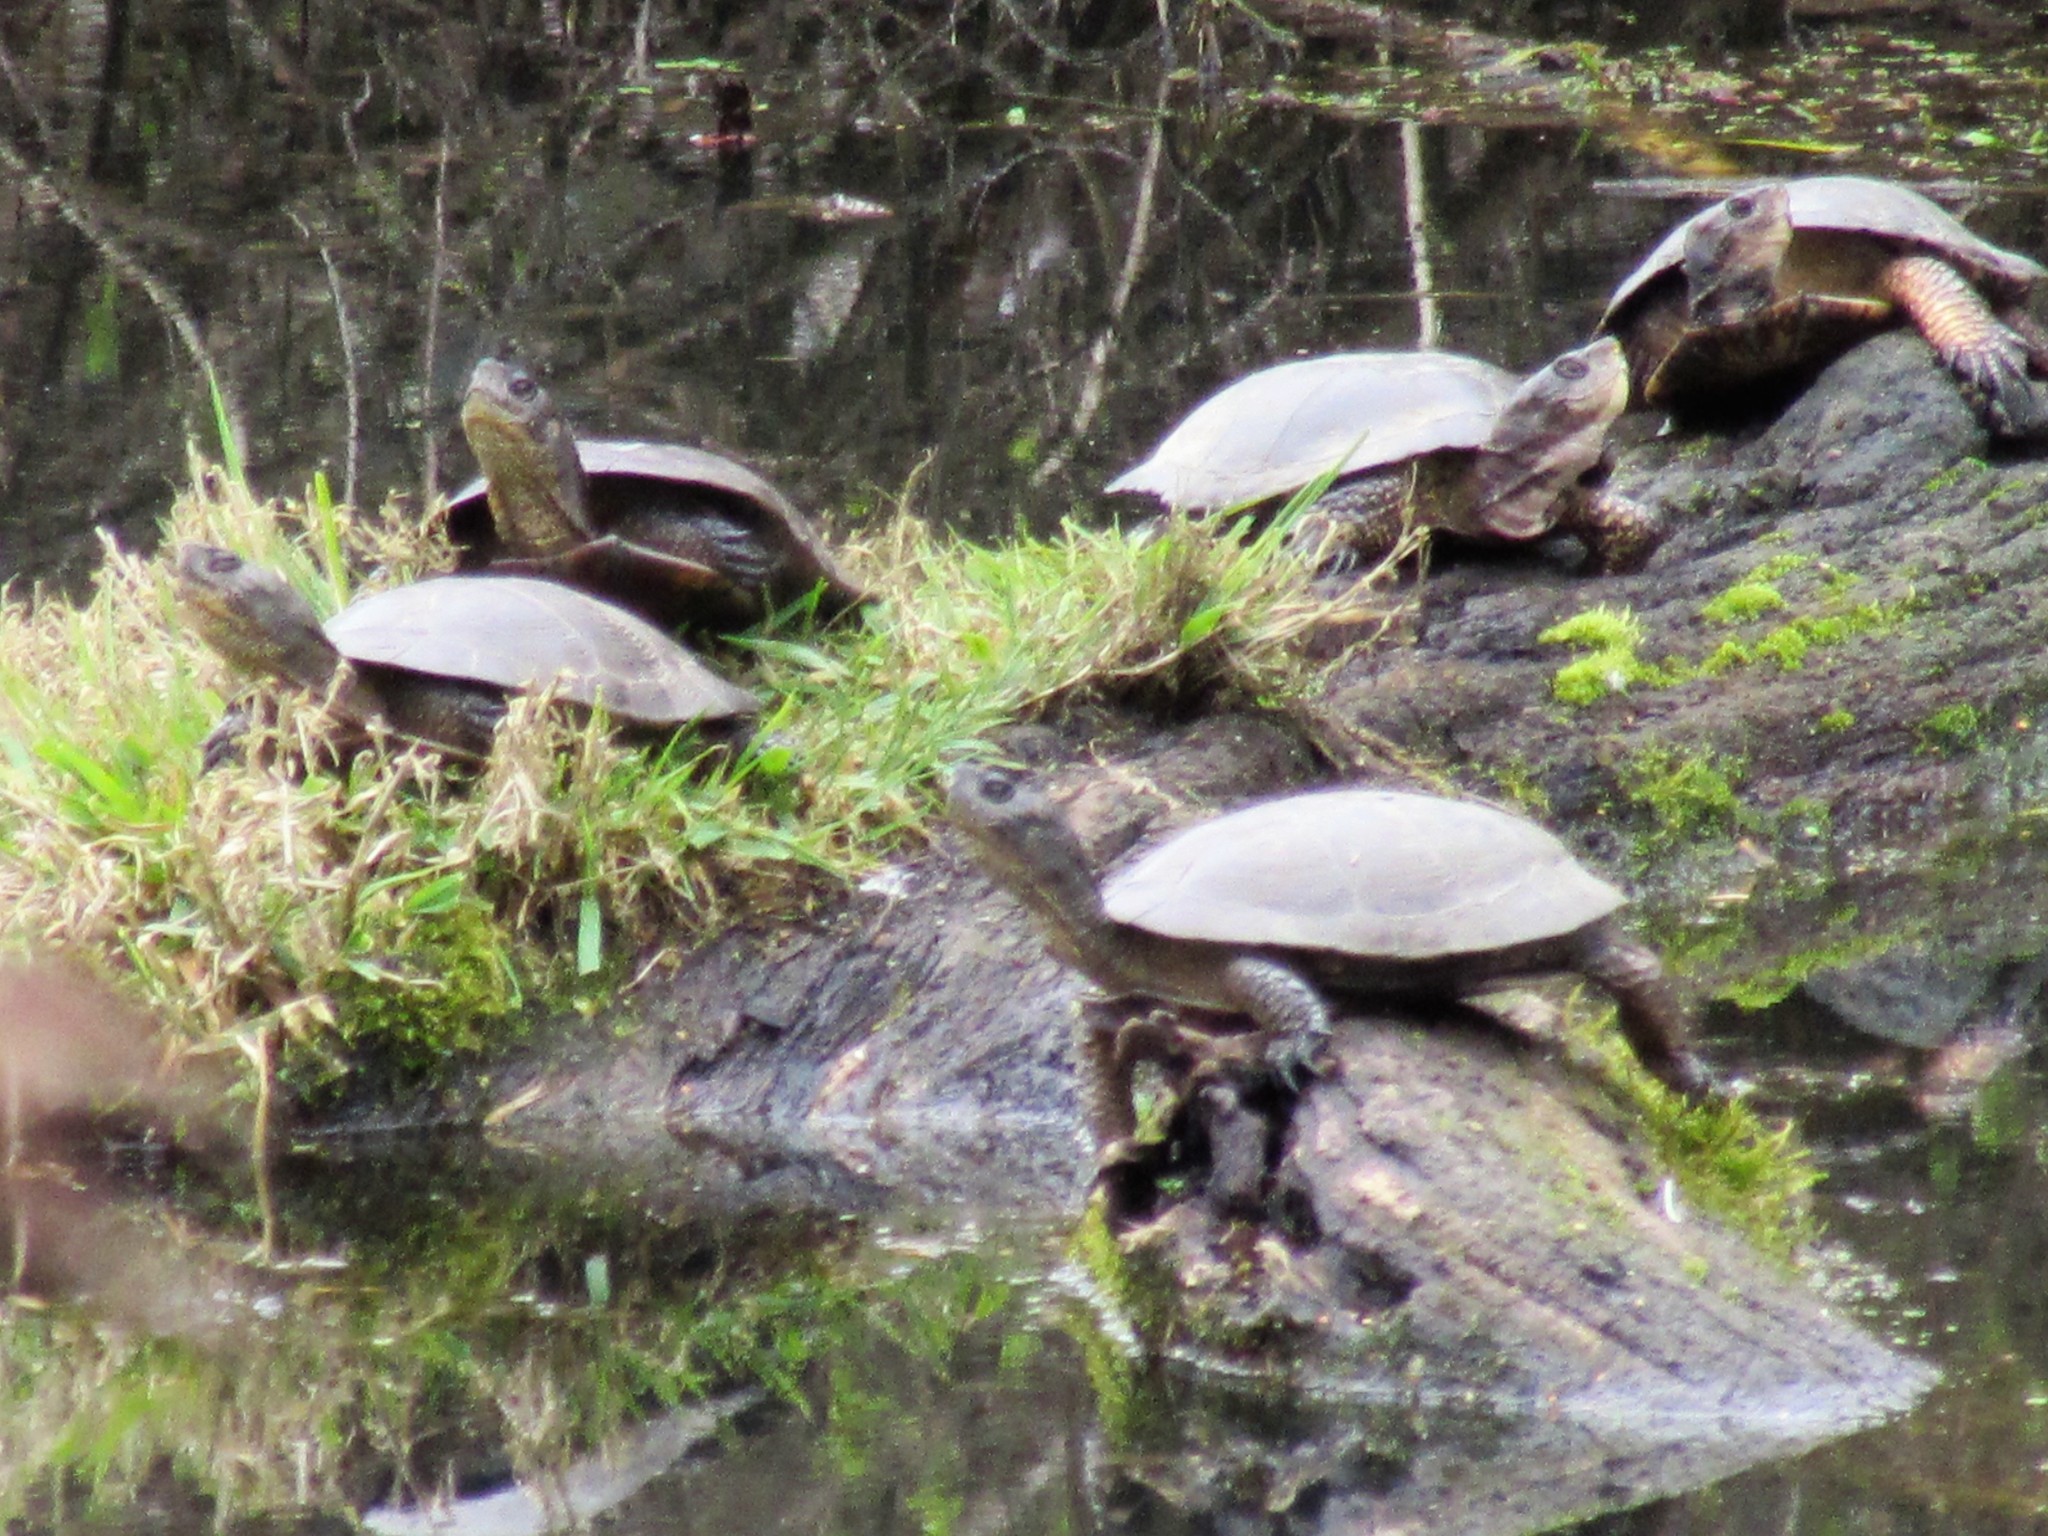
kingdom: Animalia
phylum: Chordata
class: Testudines
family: Emydidae
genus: Actinemys
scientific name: Actinemys marmorata
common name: Western pond turtle
